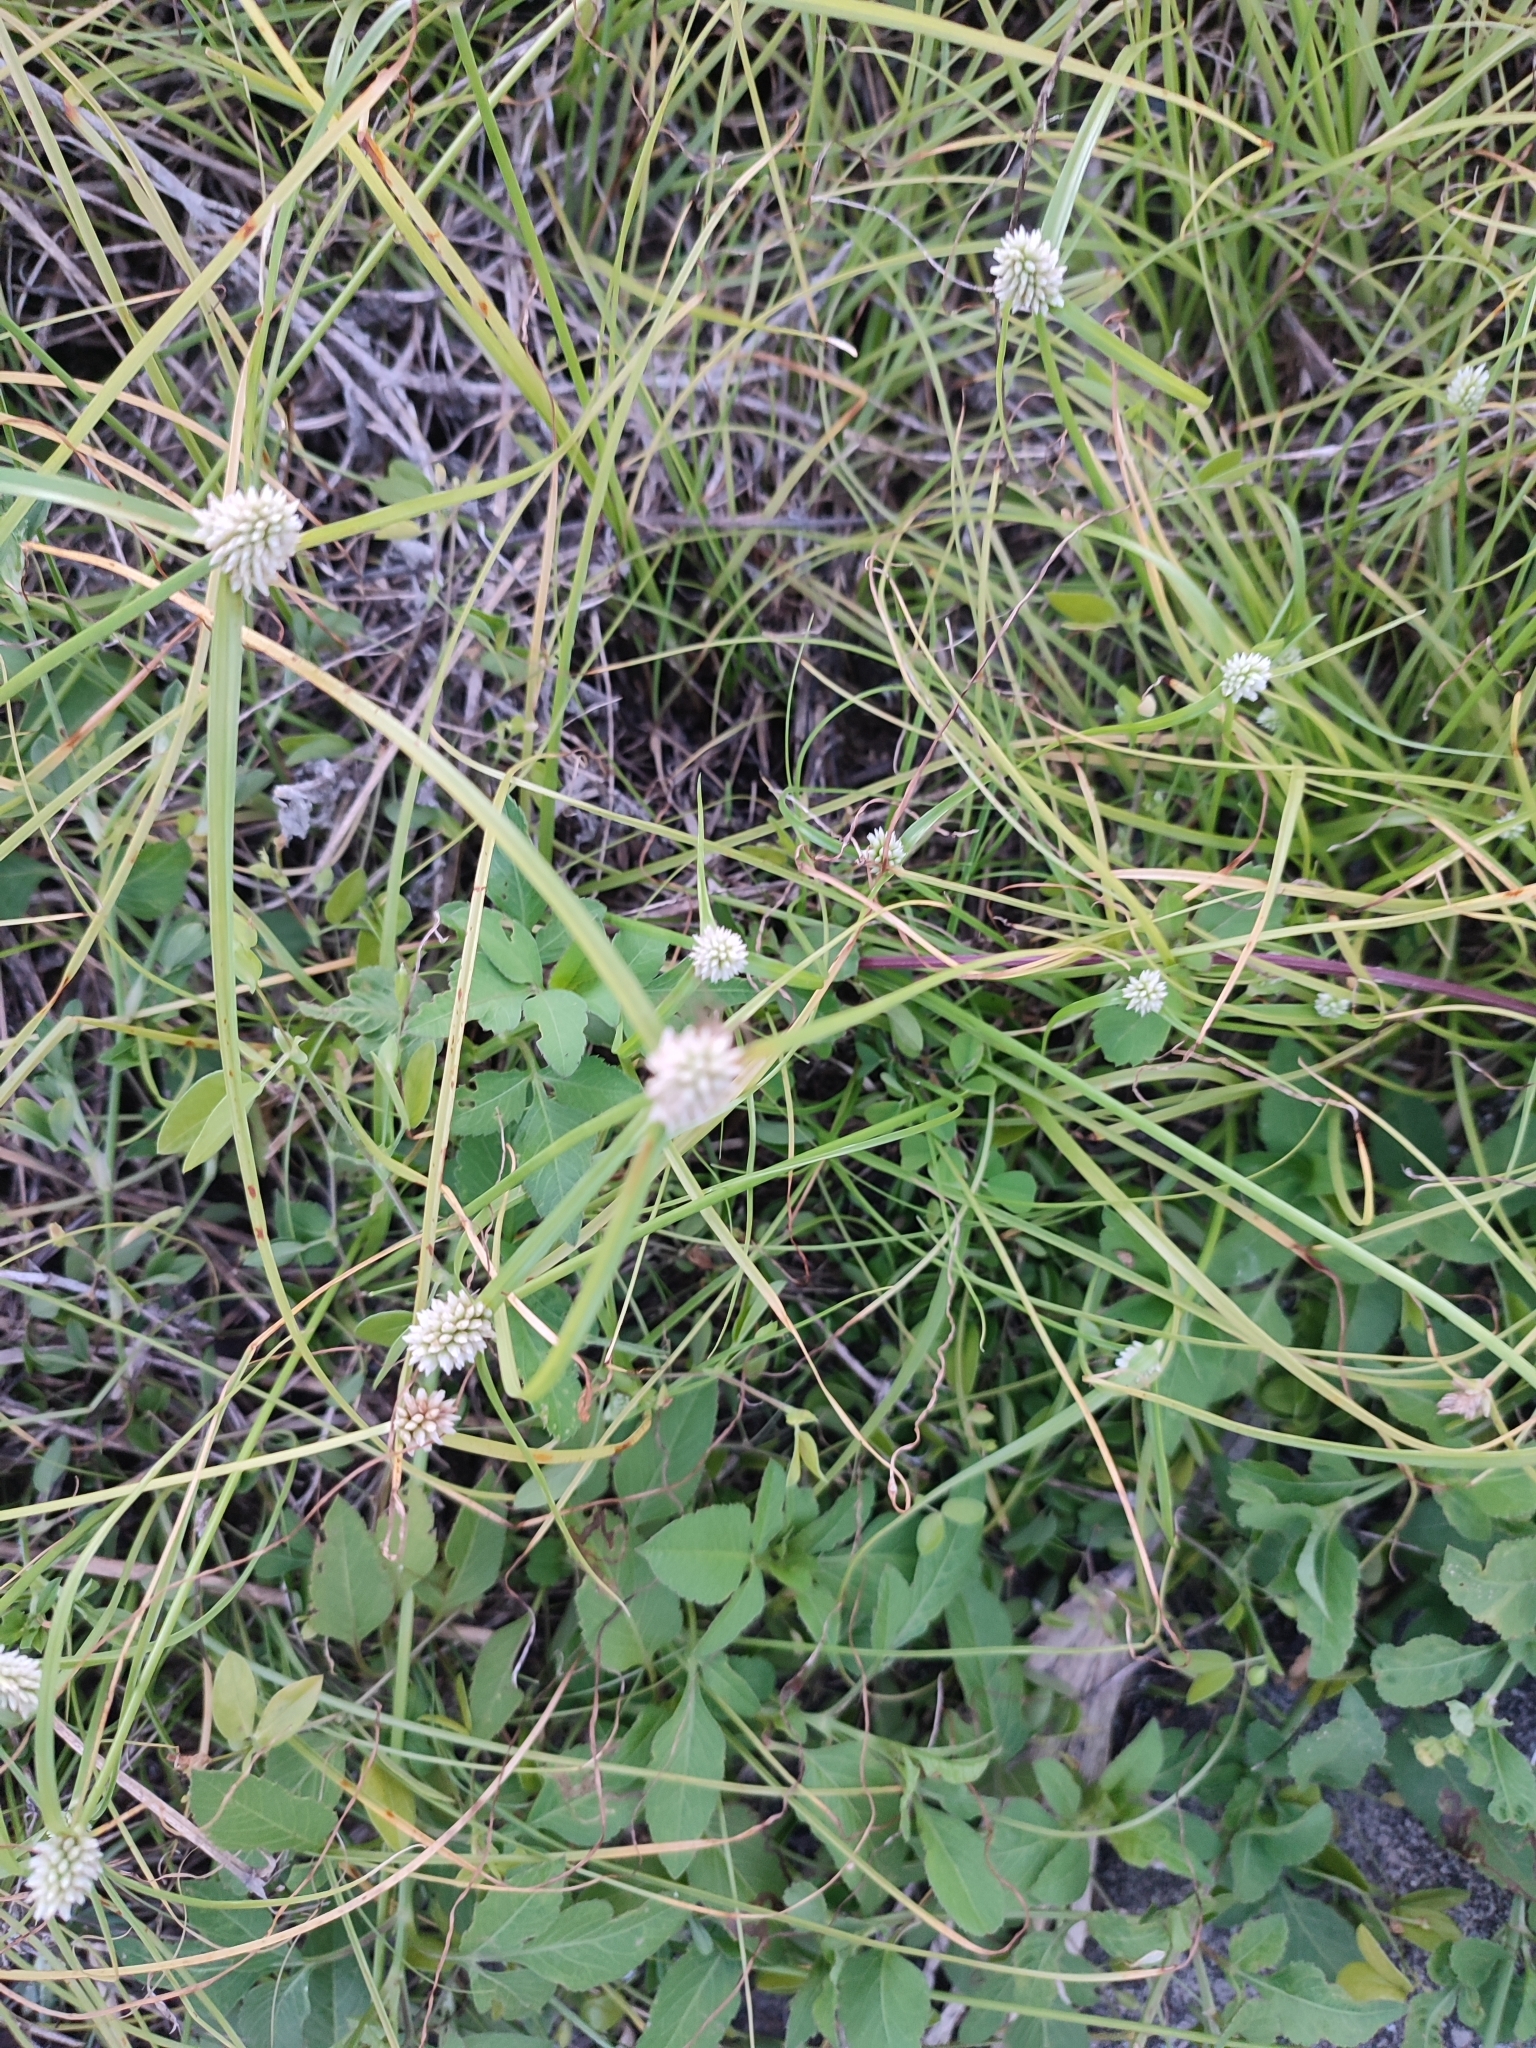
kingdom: Plantae
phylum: Tracheophyta
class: Liliopsida
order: Poales
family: Cyperaceae
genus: Cyperus
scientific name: Cyperus mindorensis
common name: Flatsedge
